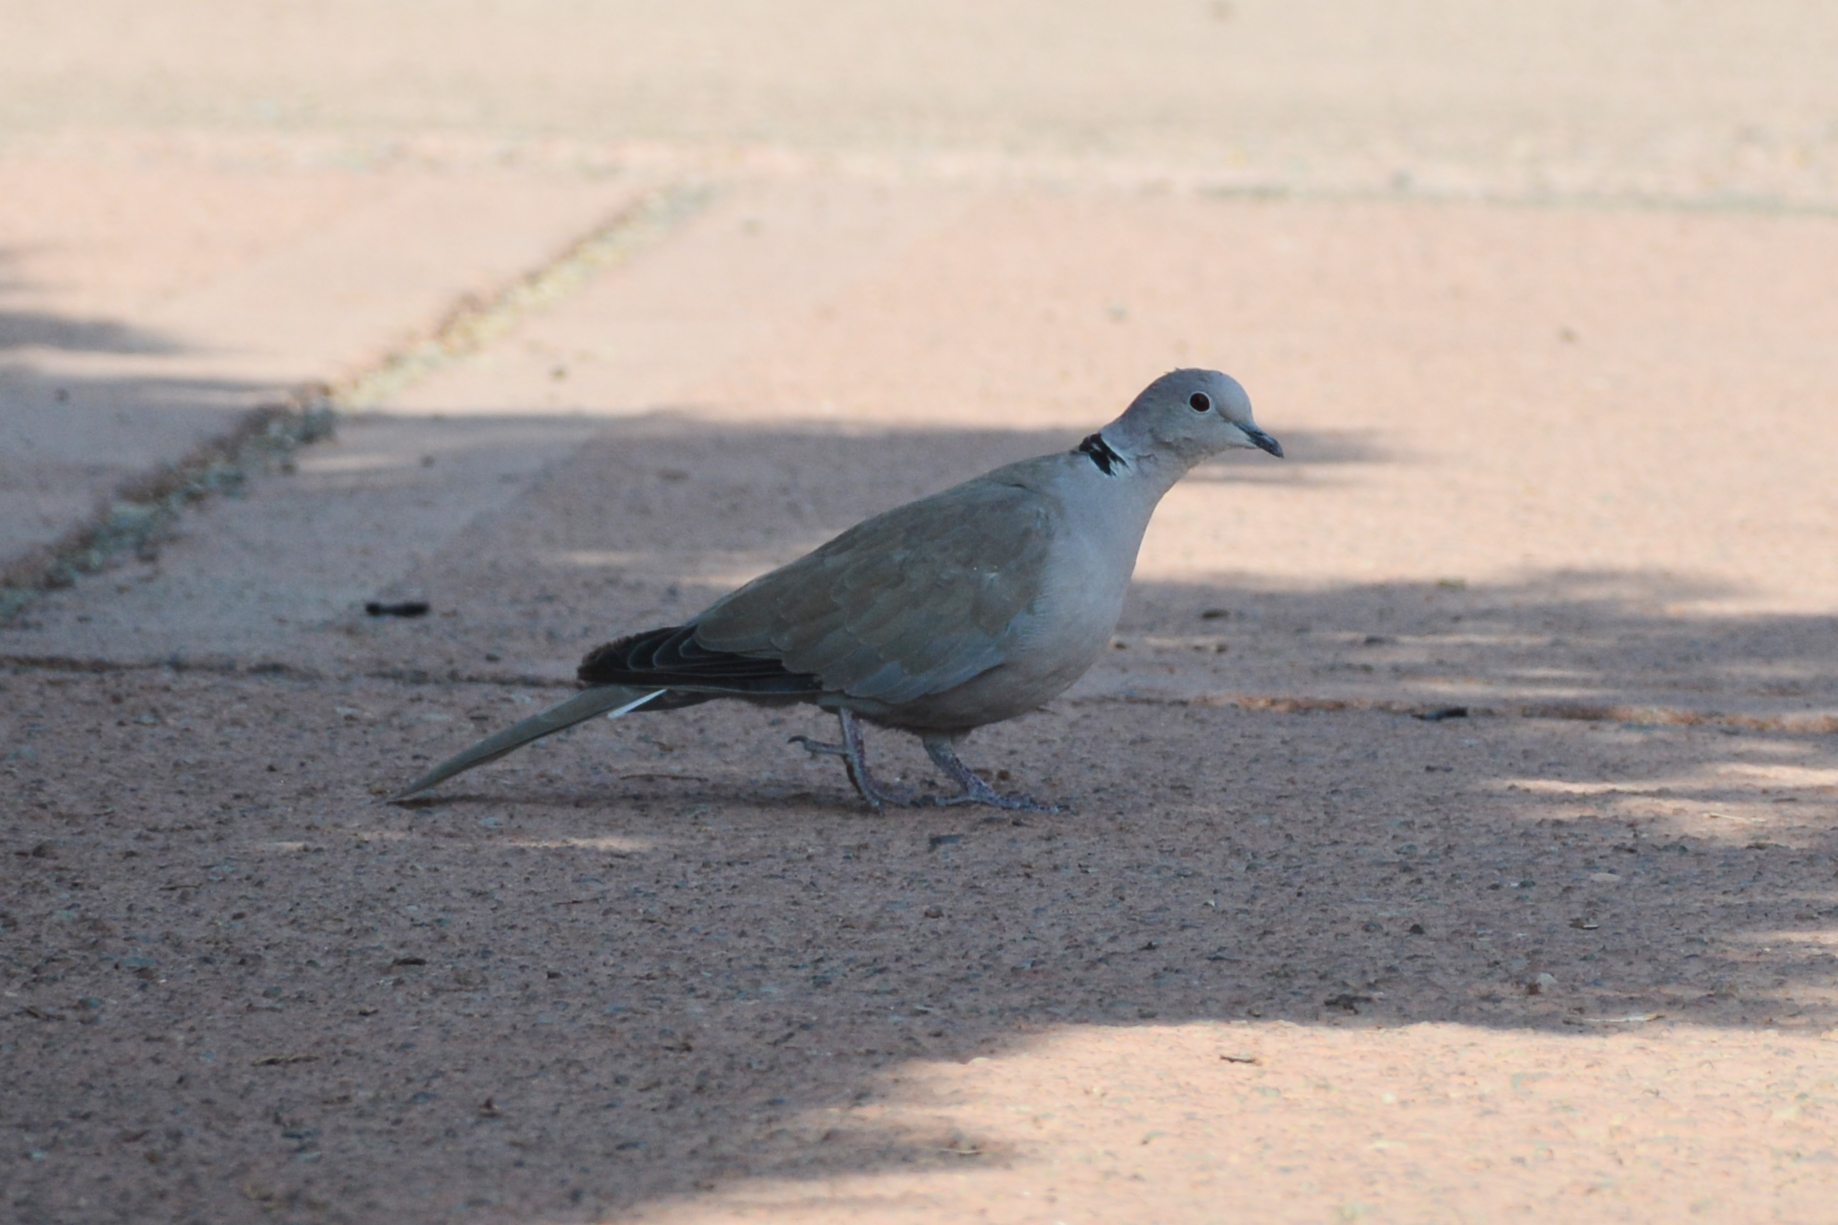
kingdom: Animalia
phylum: Chordata
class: Aves
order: Columbiformes
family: Columbidae
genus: Streptopelia
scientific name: Streptopelia decaocto
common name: Eurasian collared dove
